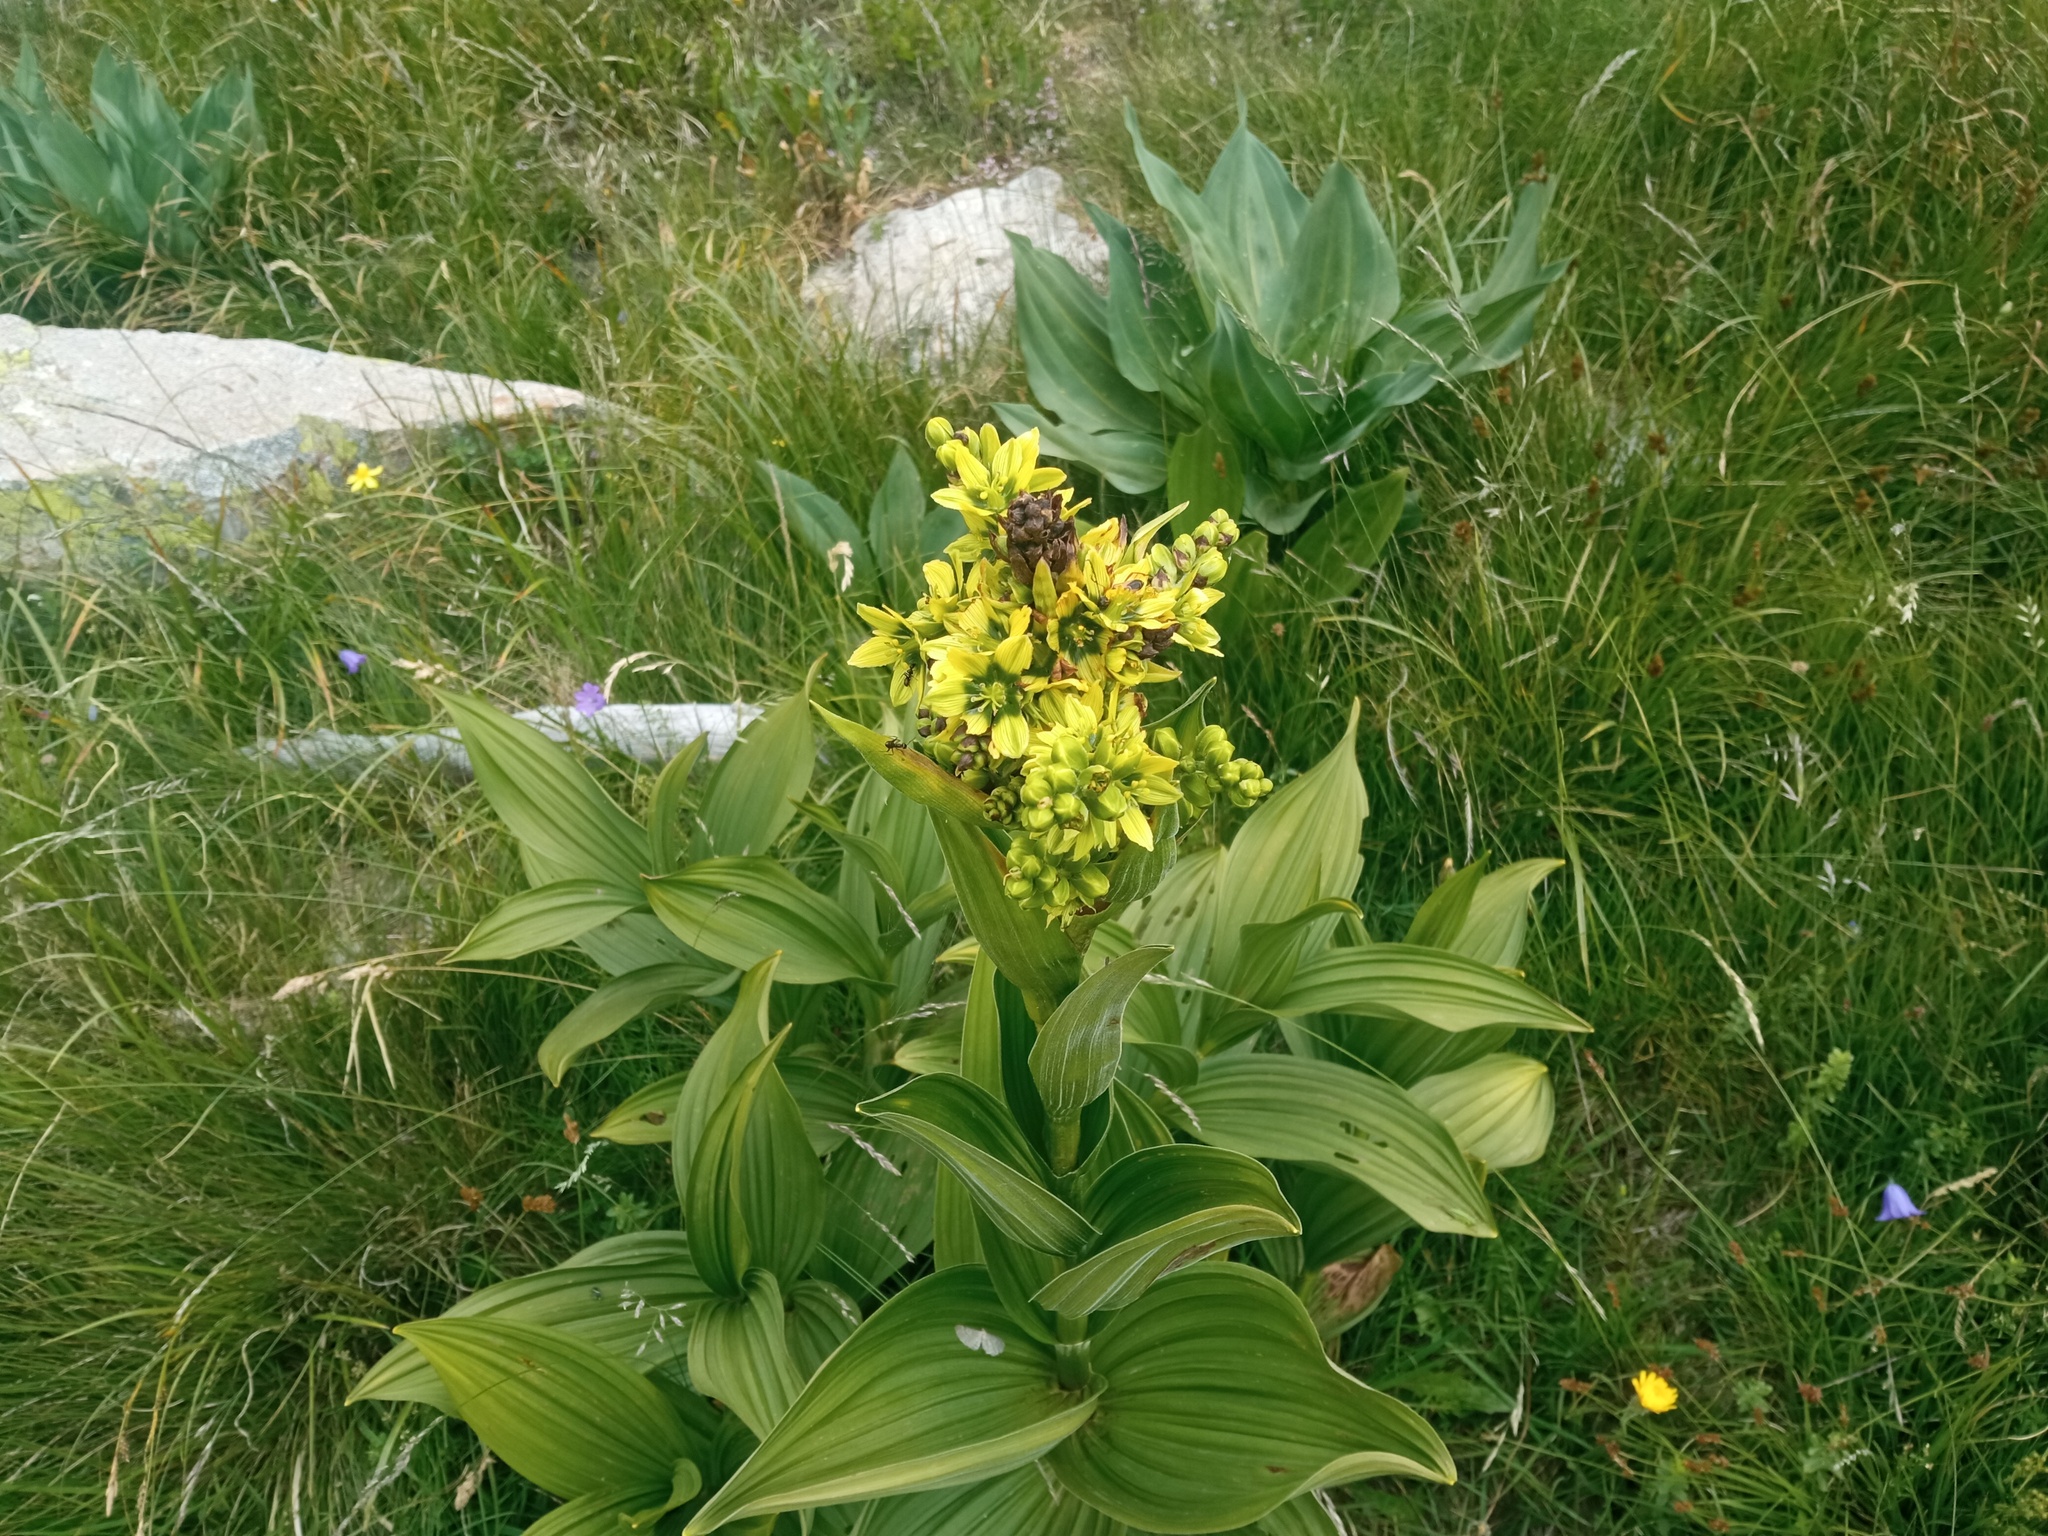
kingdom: Plantae
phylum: Tracheophyta
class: Liliopsida
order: Liliales
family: Melanthiaceae
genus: Veratrum
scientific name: Veratrum album
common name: White veratrum
